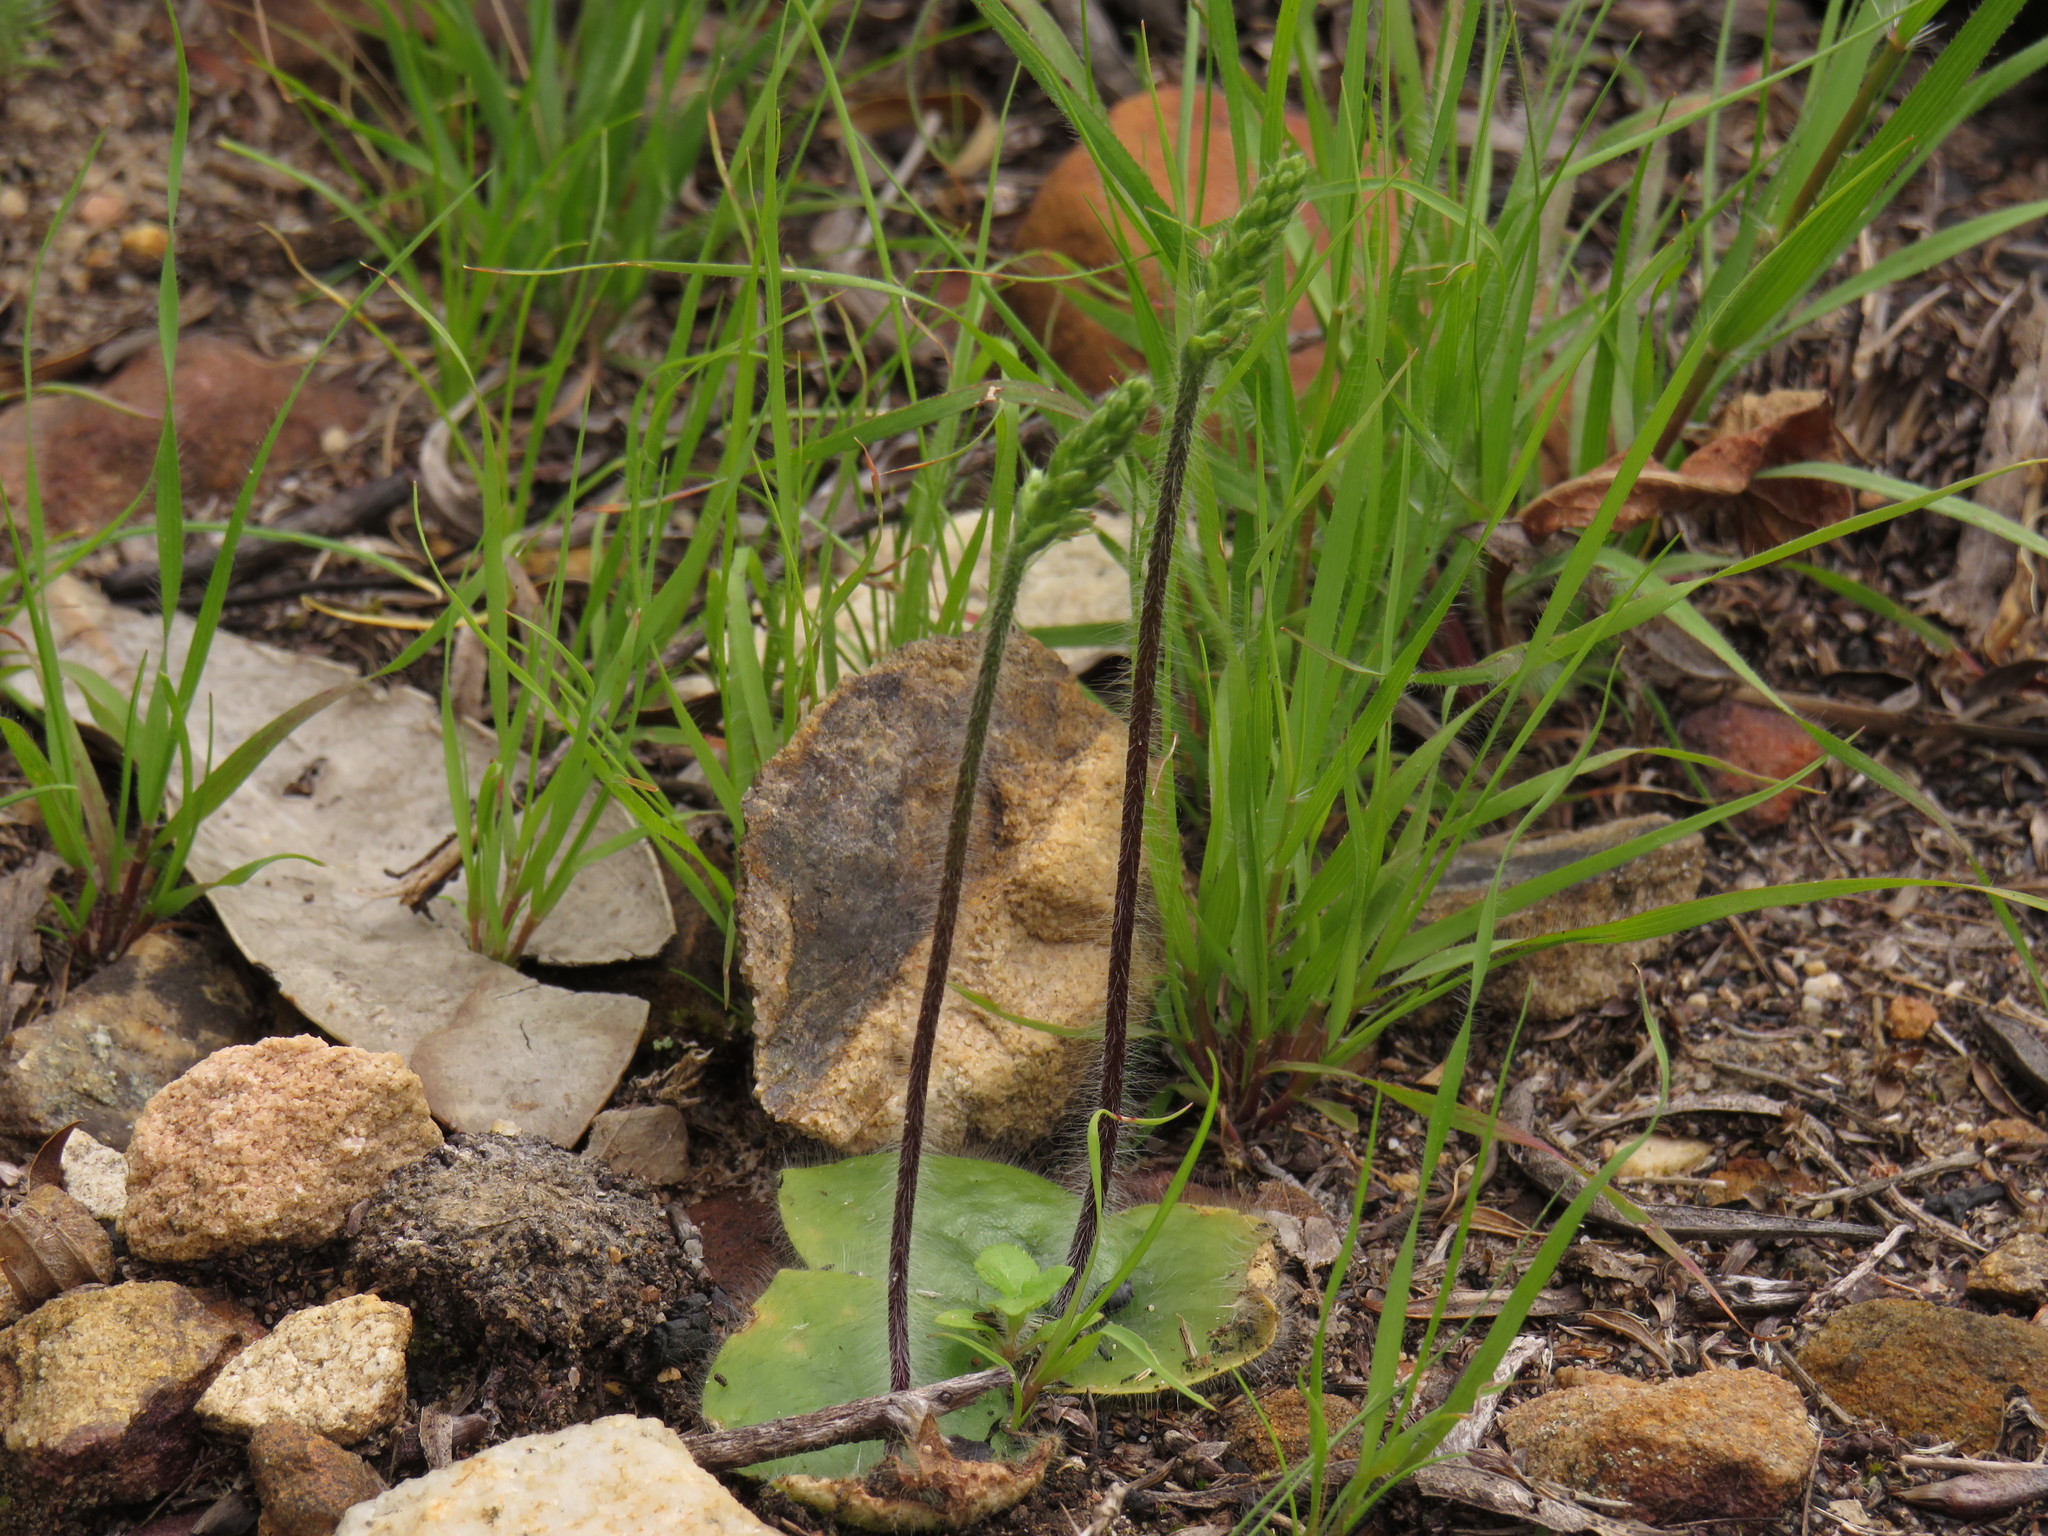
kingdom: Plantae
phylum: Tracheophyta
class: Liliopsida
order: Asparagales
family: Orchidaceae
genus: Holothrix
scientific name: Holothrix villosa
